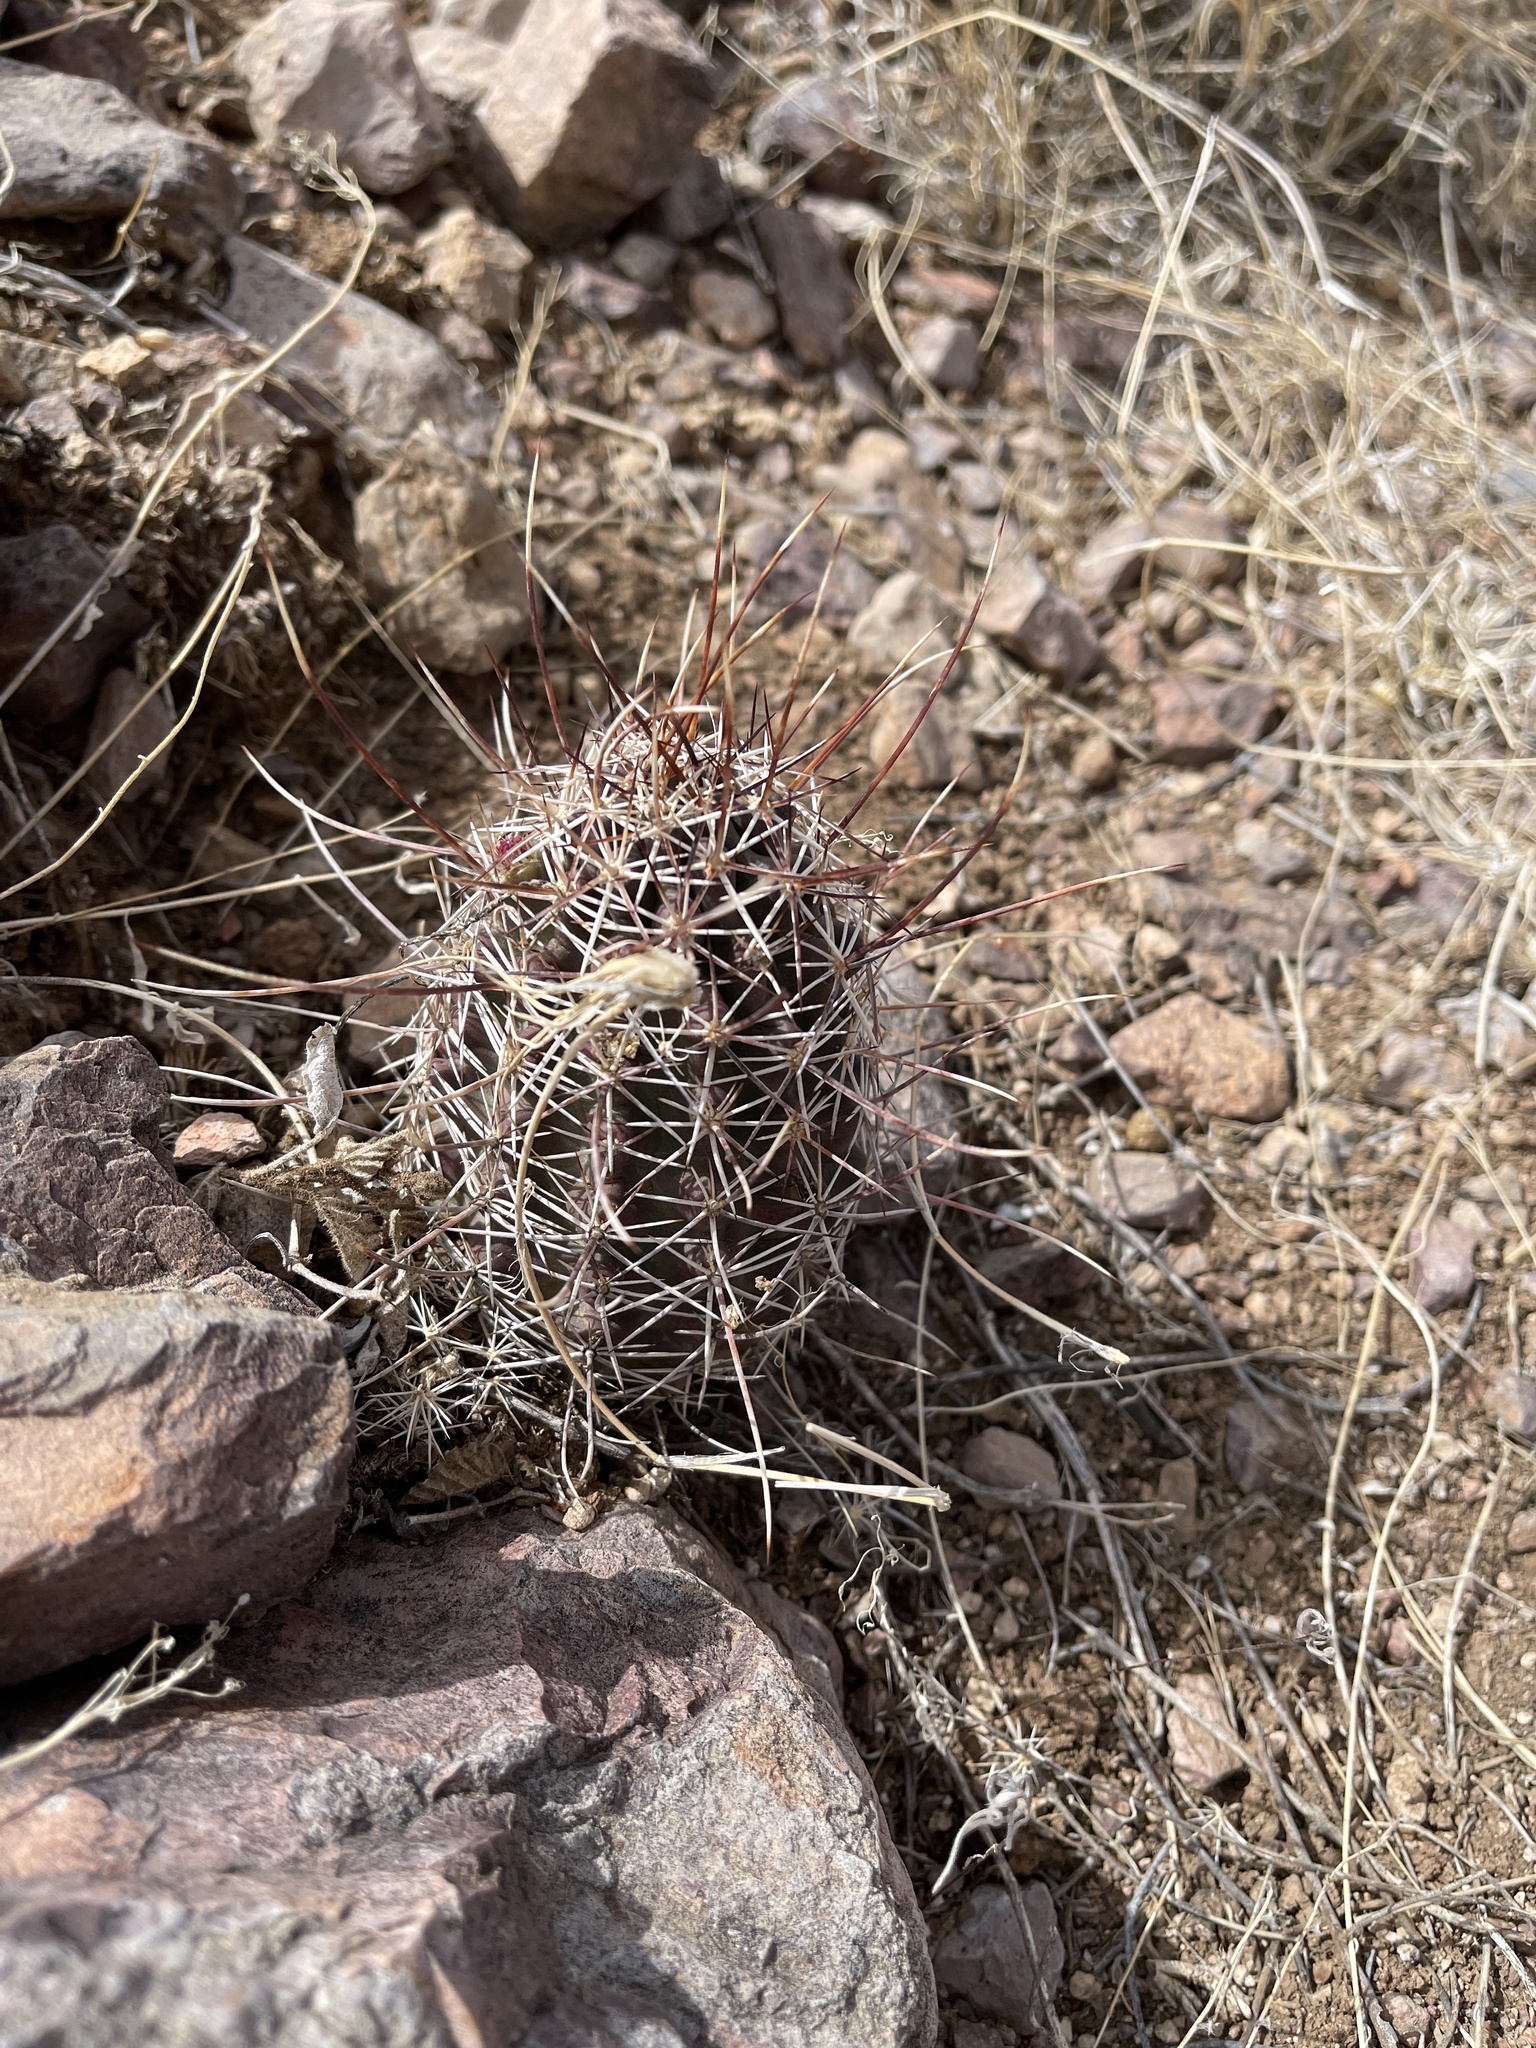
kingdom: Plantae
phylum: Tracheophyta
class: Magnoliopsida
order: Caryophyllales
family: Cactaceae
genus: Echinocereus
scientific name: Echinocereus fendleri
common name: Fendler's hedgehog cactus
